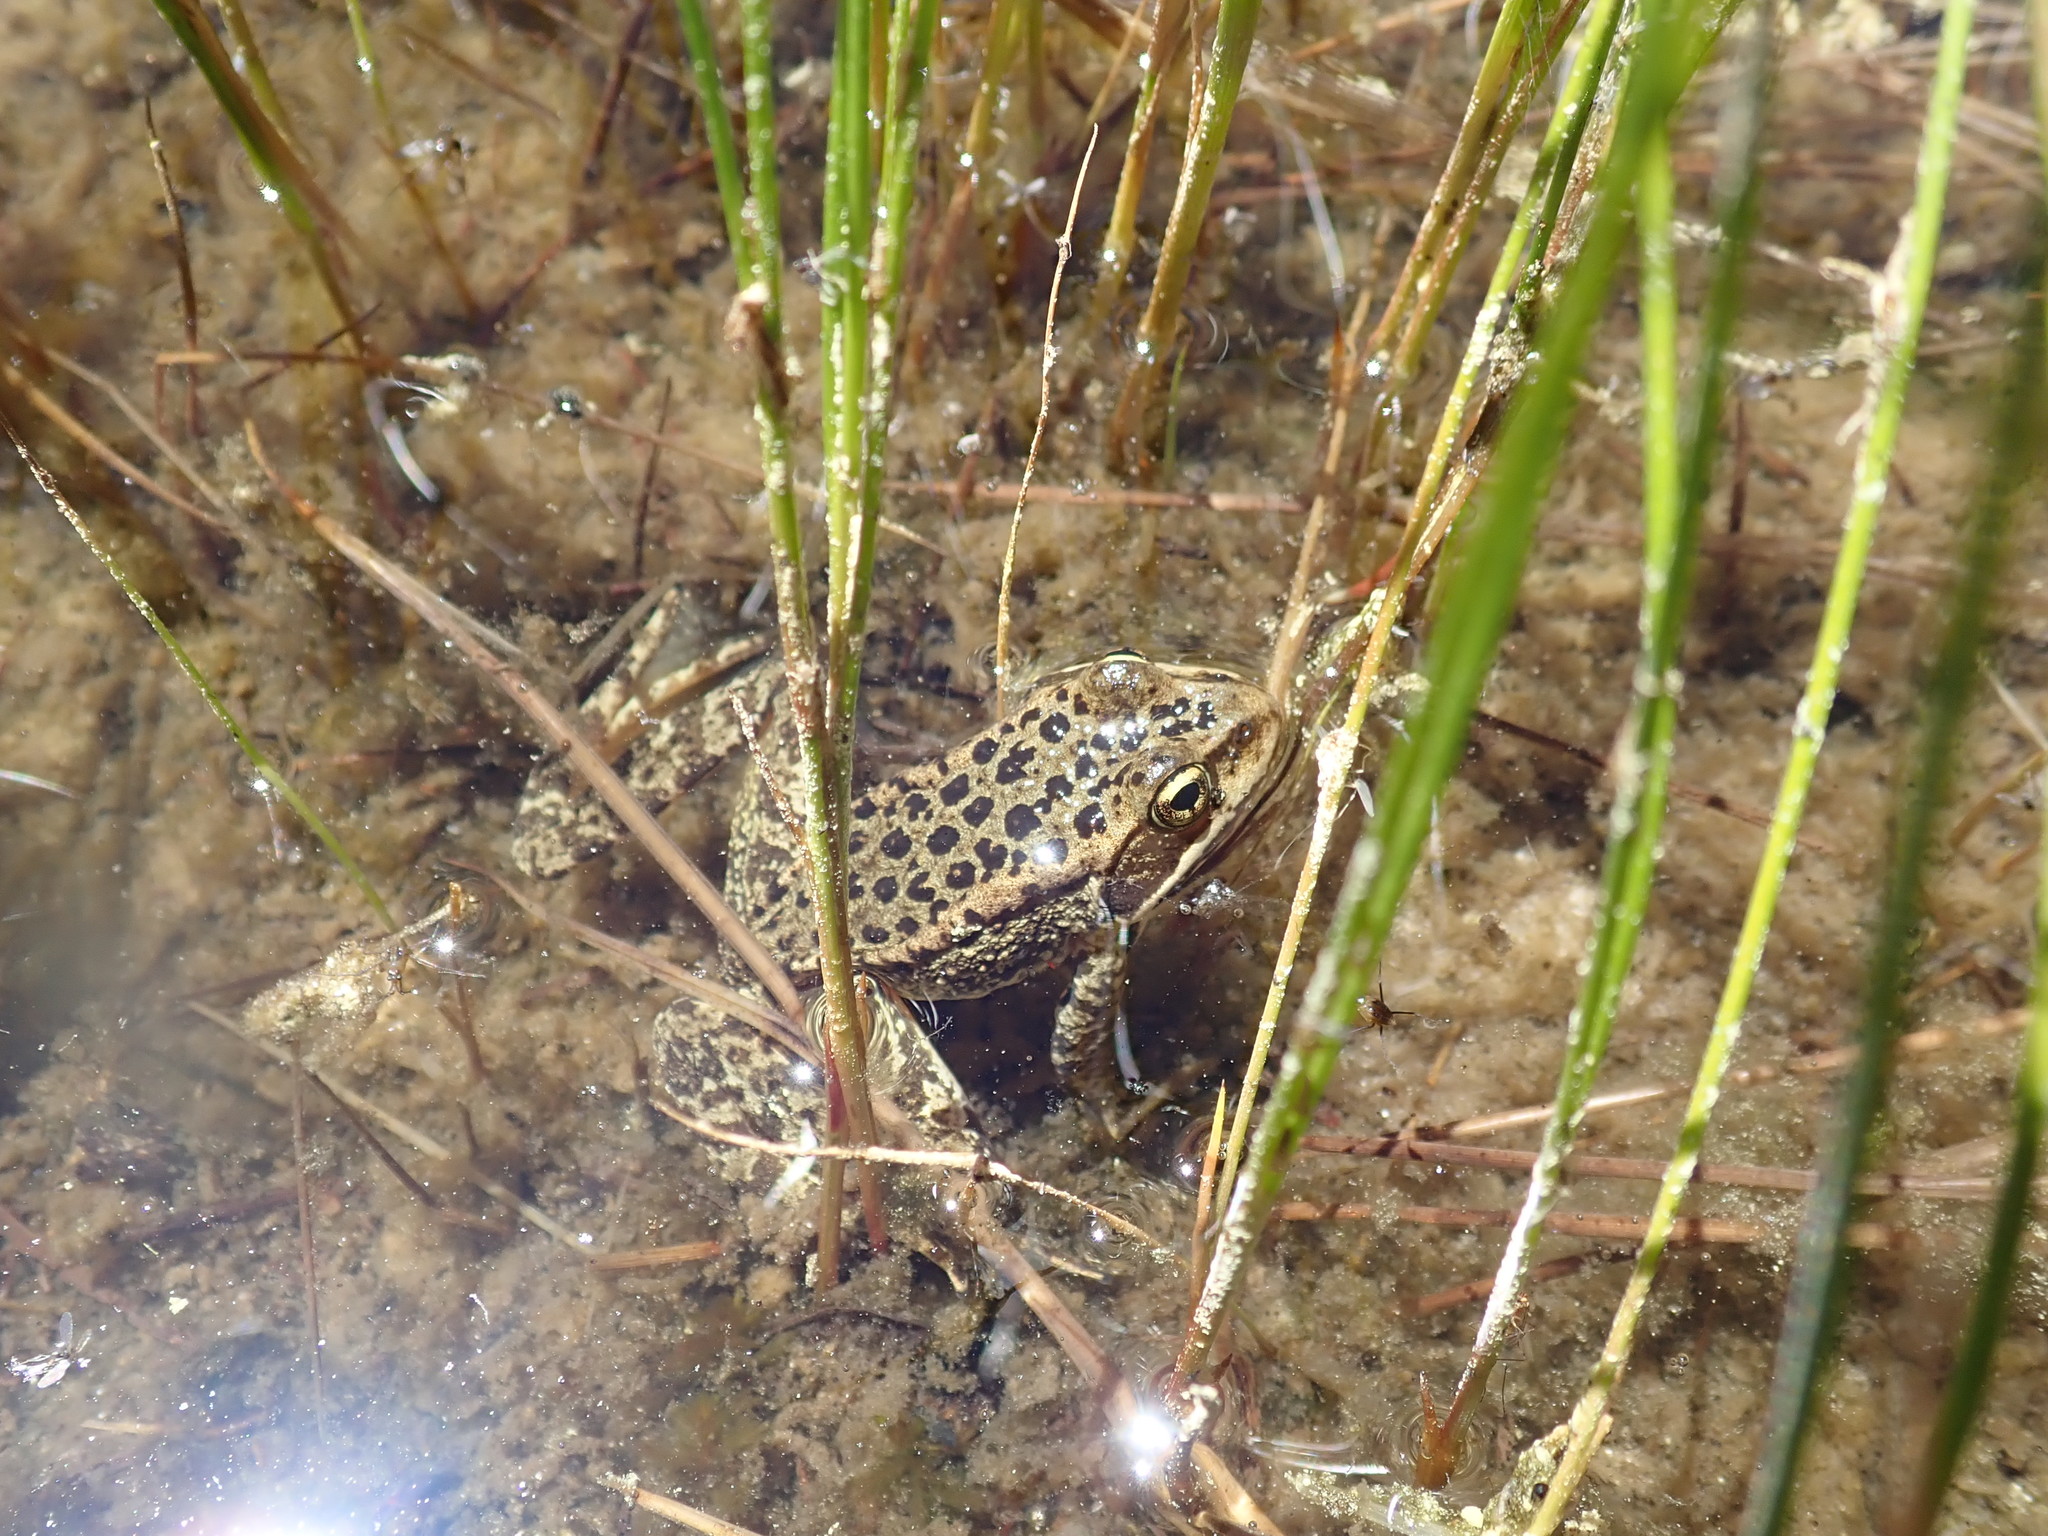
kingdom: Animalia
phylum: Chordata
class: Amphibia
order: Anura
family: Ranidae
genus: Rana
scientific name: Rana cascadae
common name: Cascades frog
